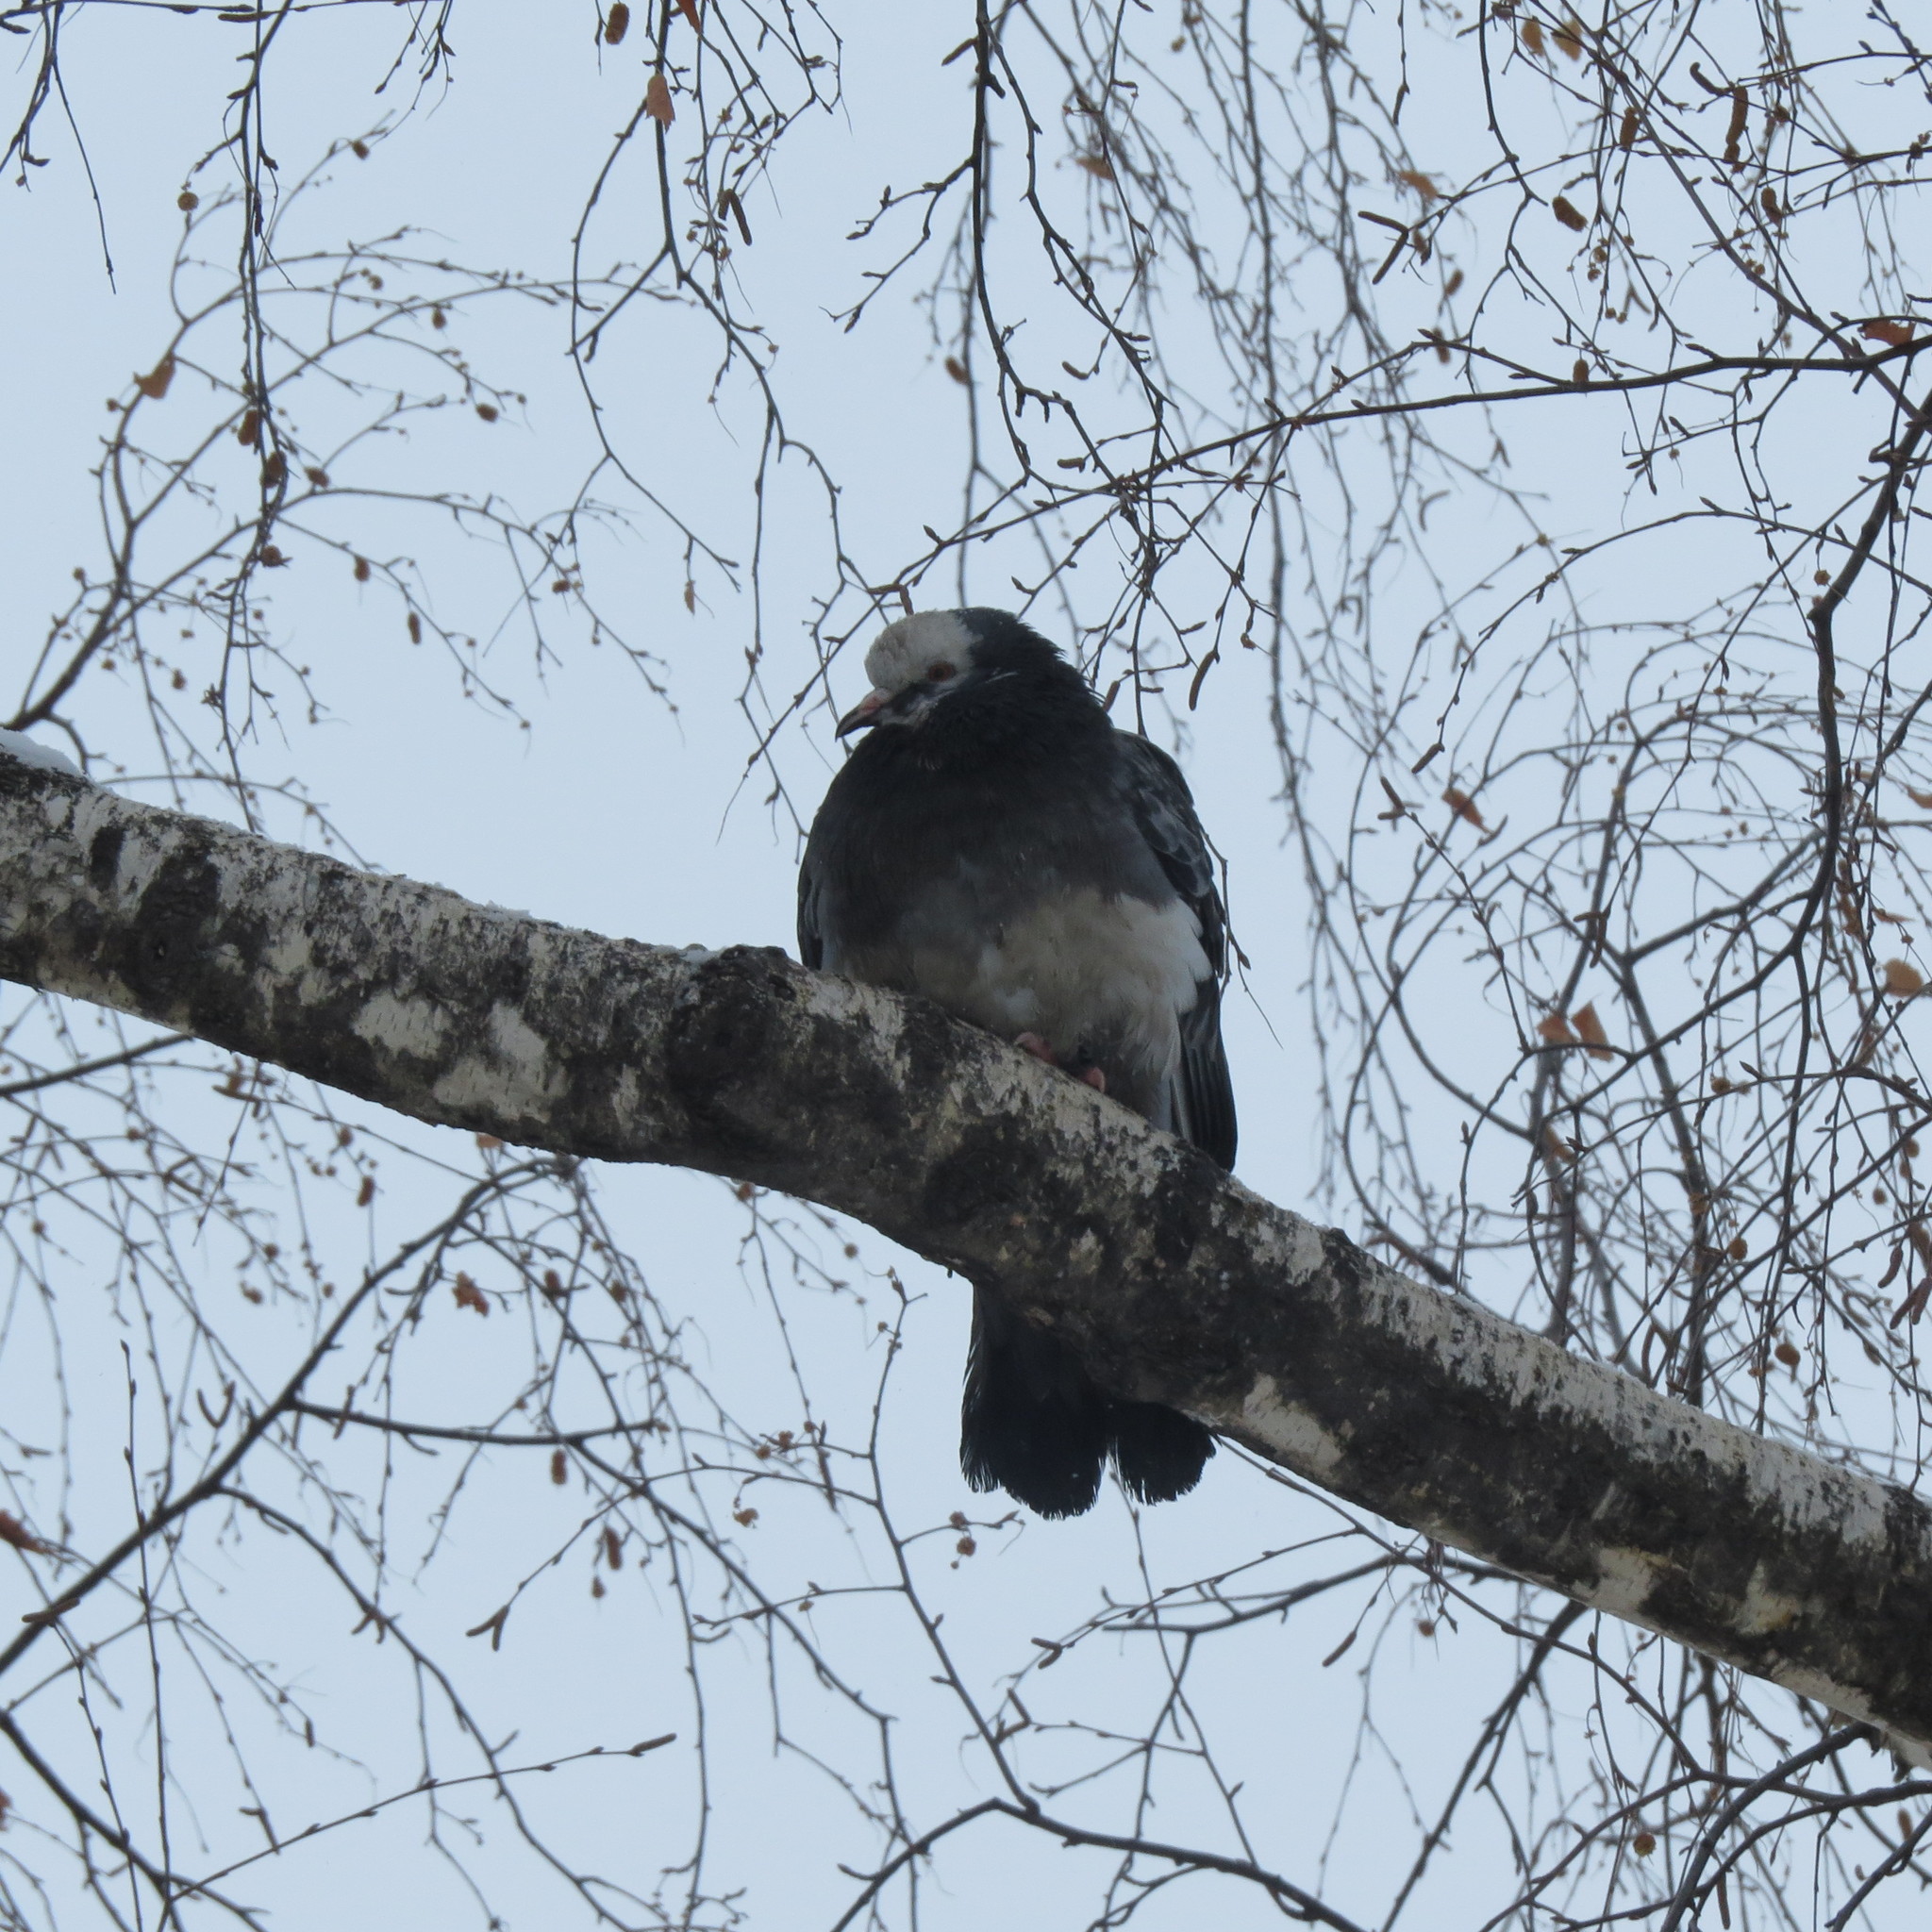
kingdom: Animalia
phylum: Chordata
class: Aves
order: Columbiformes
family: Columbidae
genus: Columba
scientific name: Columba livia
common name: Rock pigeon
